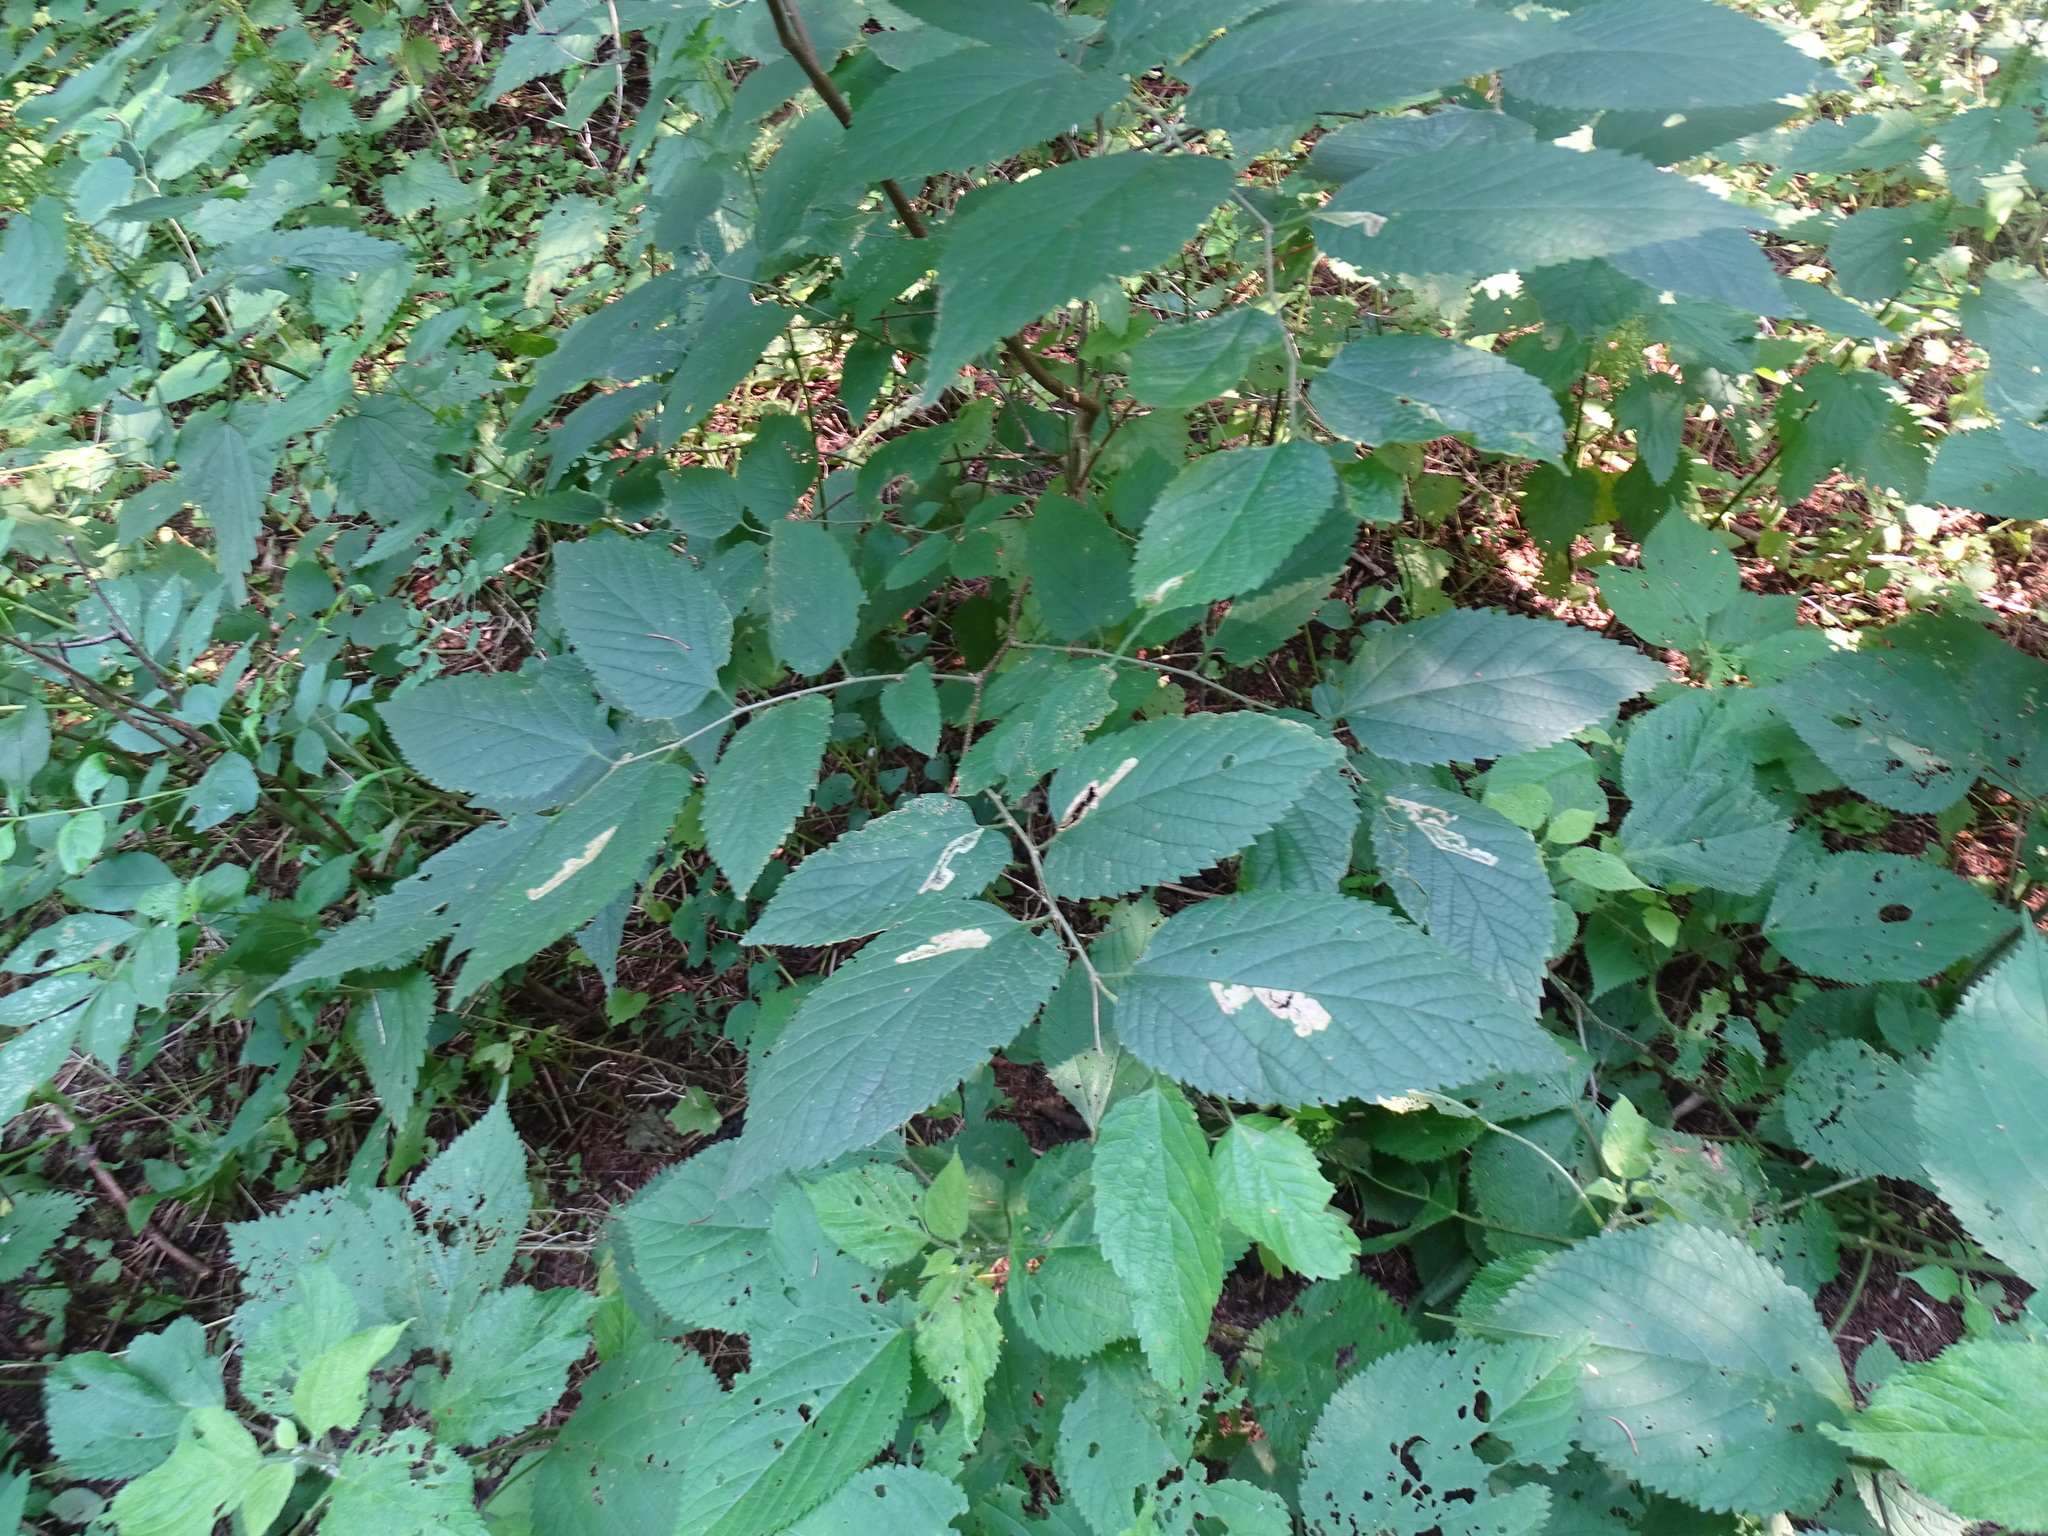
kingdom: Plantae
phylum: Tracheophyta
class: Magnoliopsida
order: Rosales
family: Cannabaceae
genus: Celtis
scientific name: Celtis occidentalis
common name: Common hackberry
